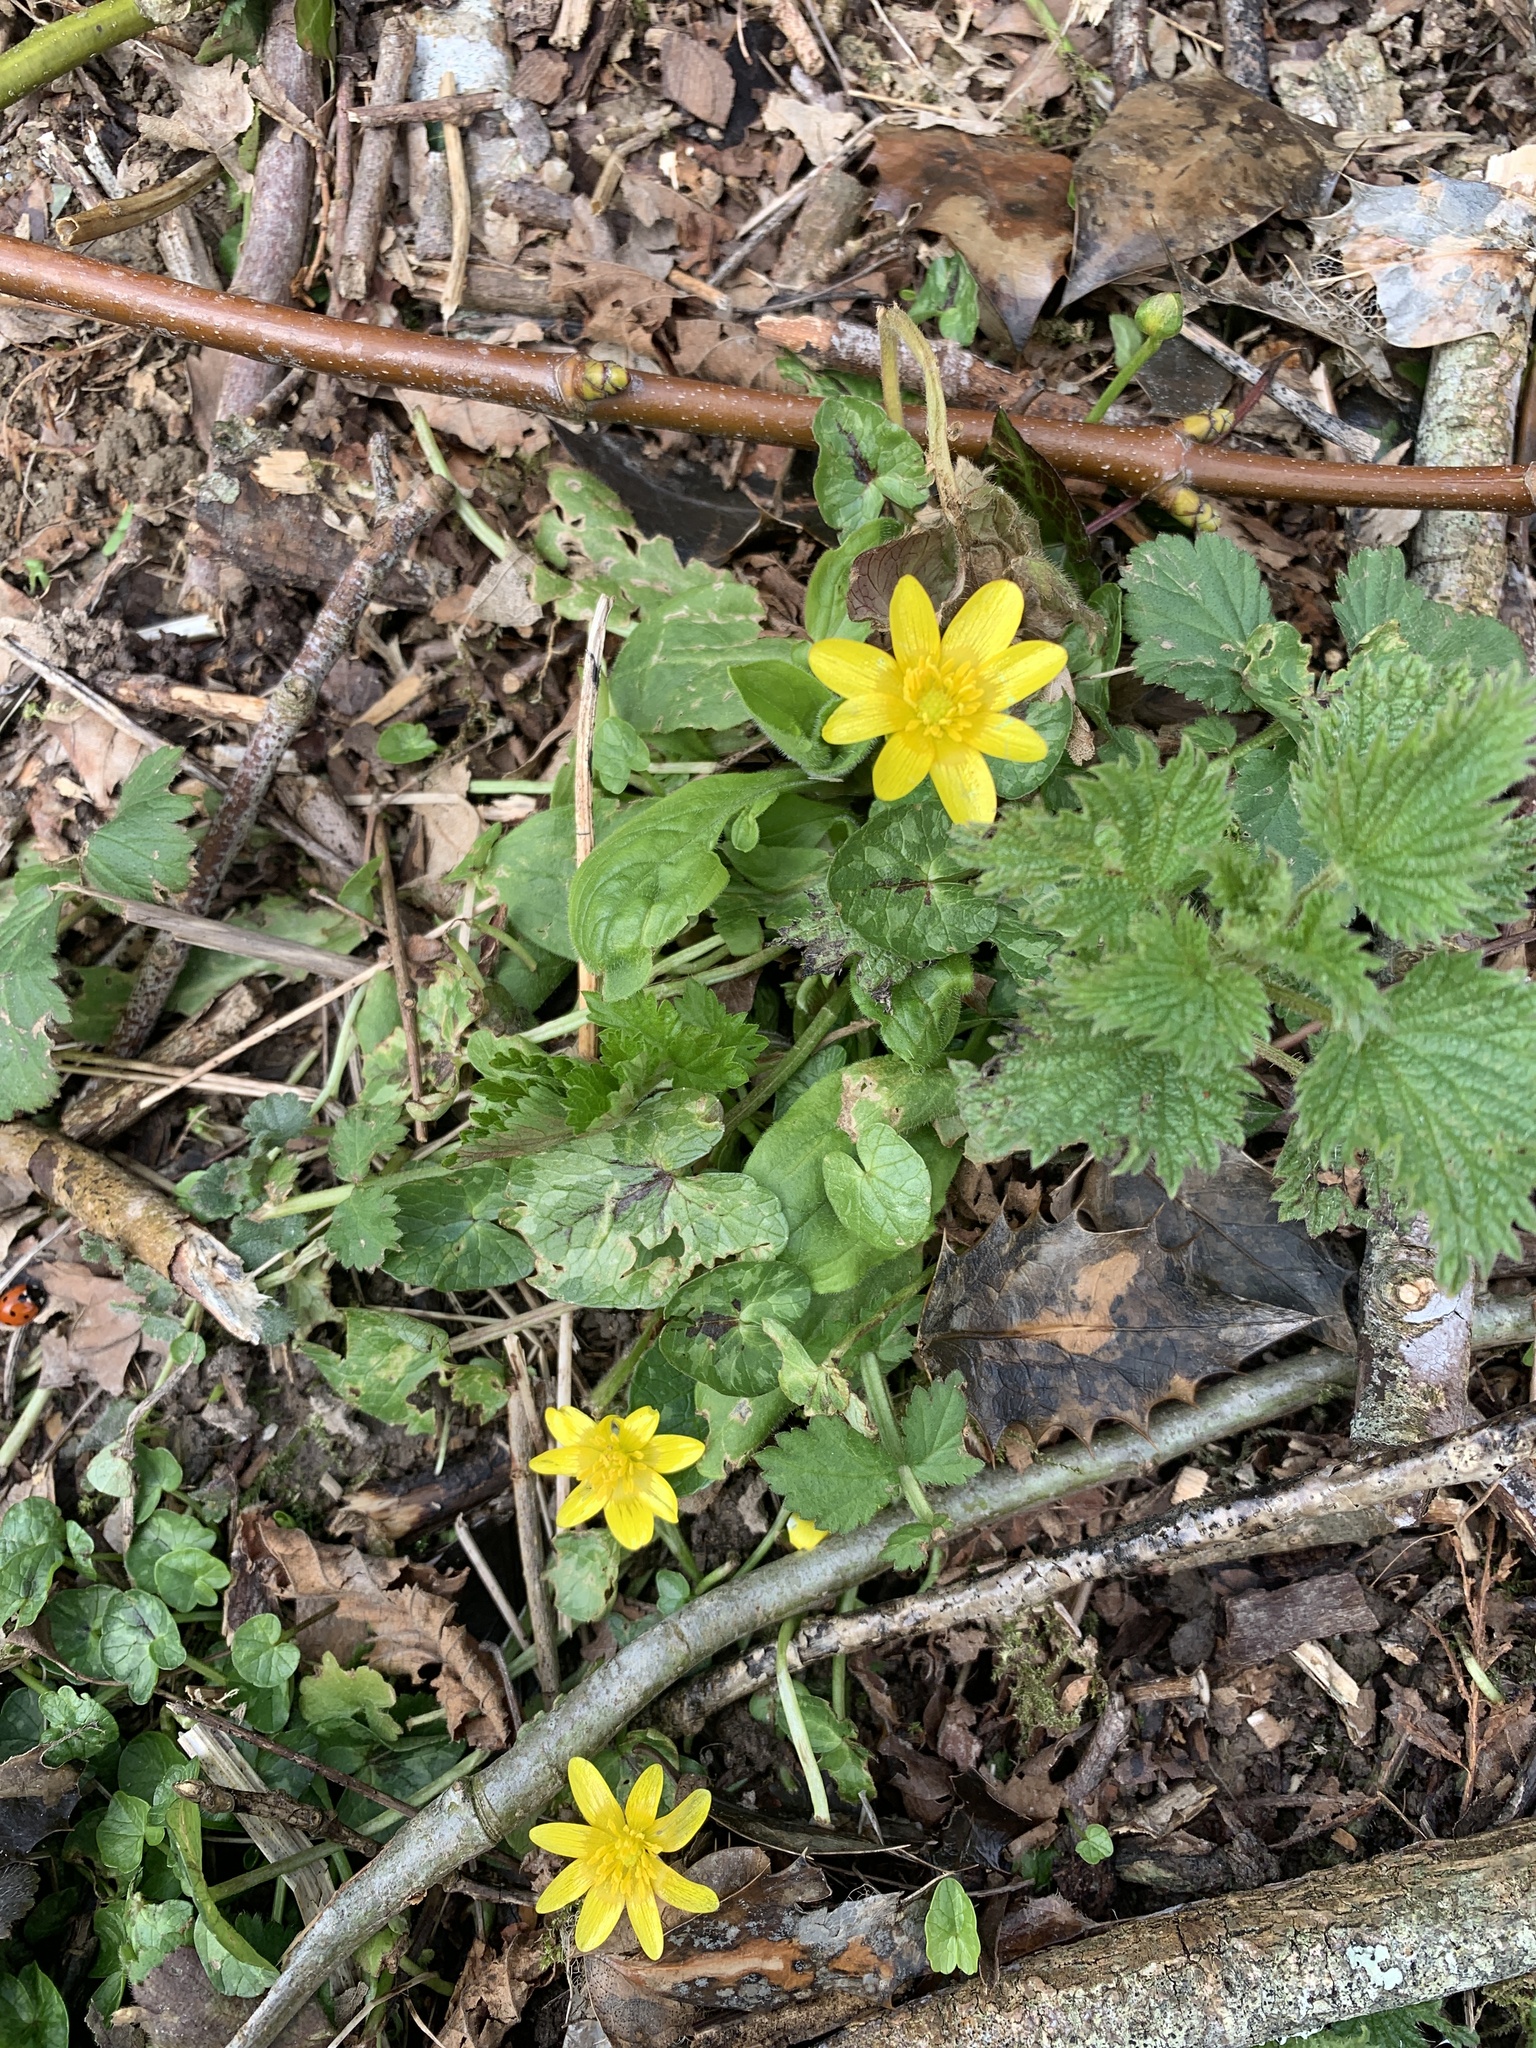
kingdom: Plantae
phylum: Tracheophyta
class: Magnoliopsida
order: Ranunculales
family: Ranunculaceae
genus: Ficaria
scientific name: Ficaria verna
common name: Lesser celandine
